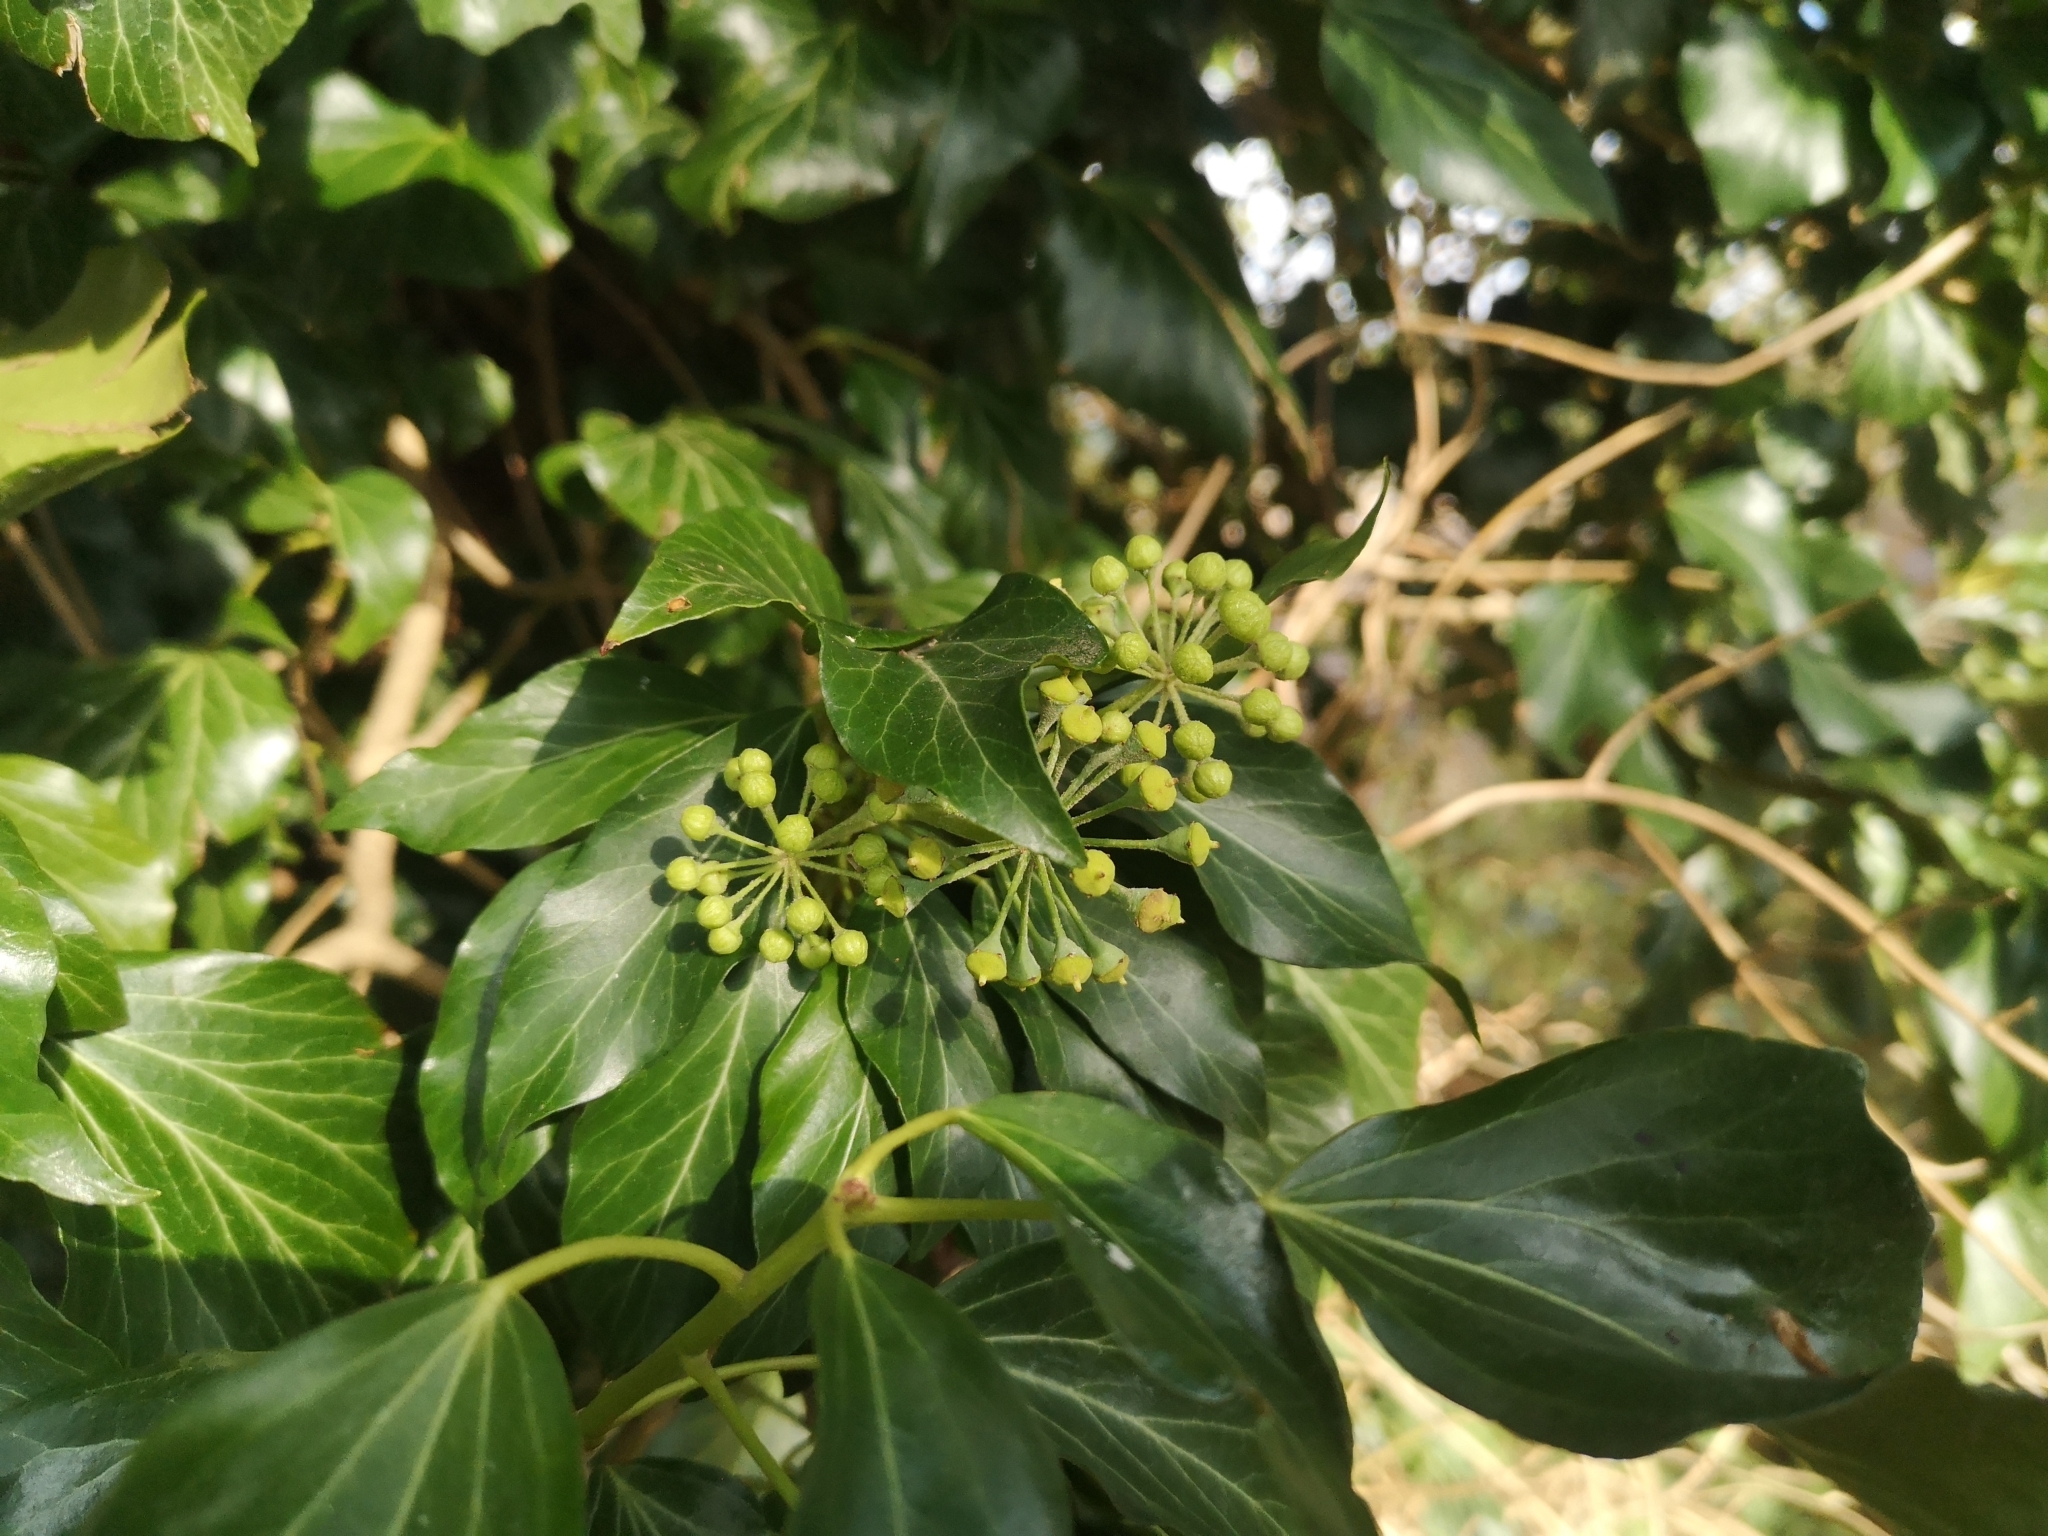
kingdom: Plantae
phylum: Tracheophyta
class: Magnoliopsida
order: Apiales
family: Araliaceae
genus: Hedera
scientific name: Hedera helix
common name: Ivy
